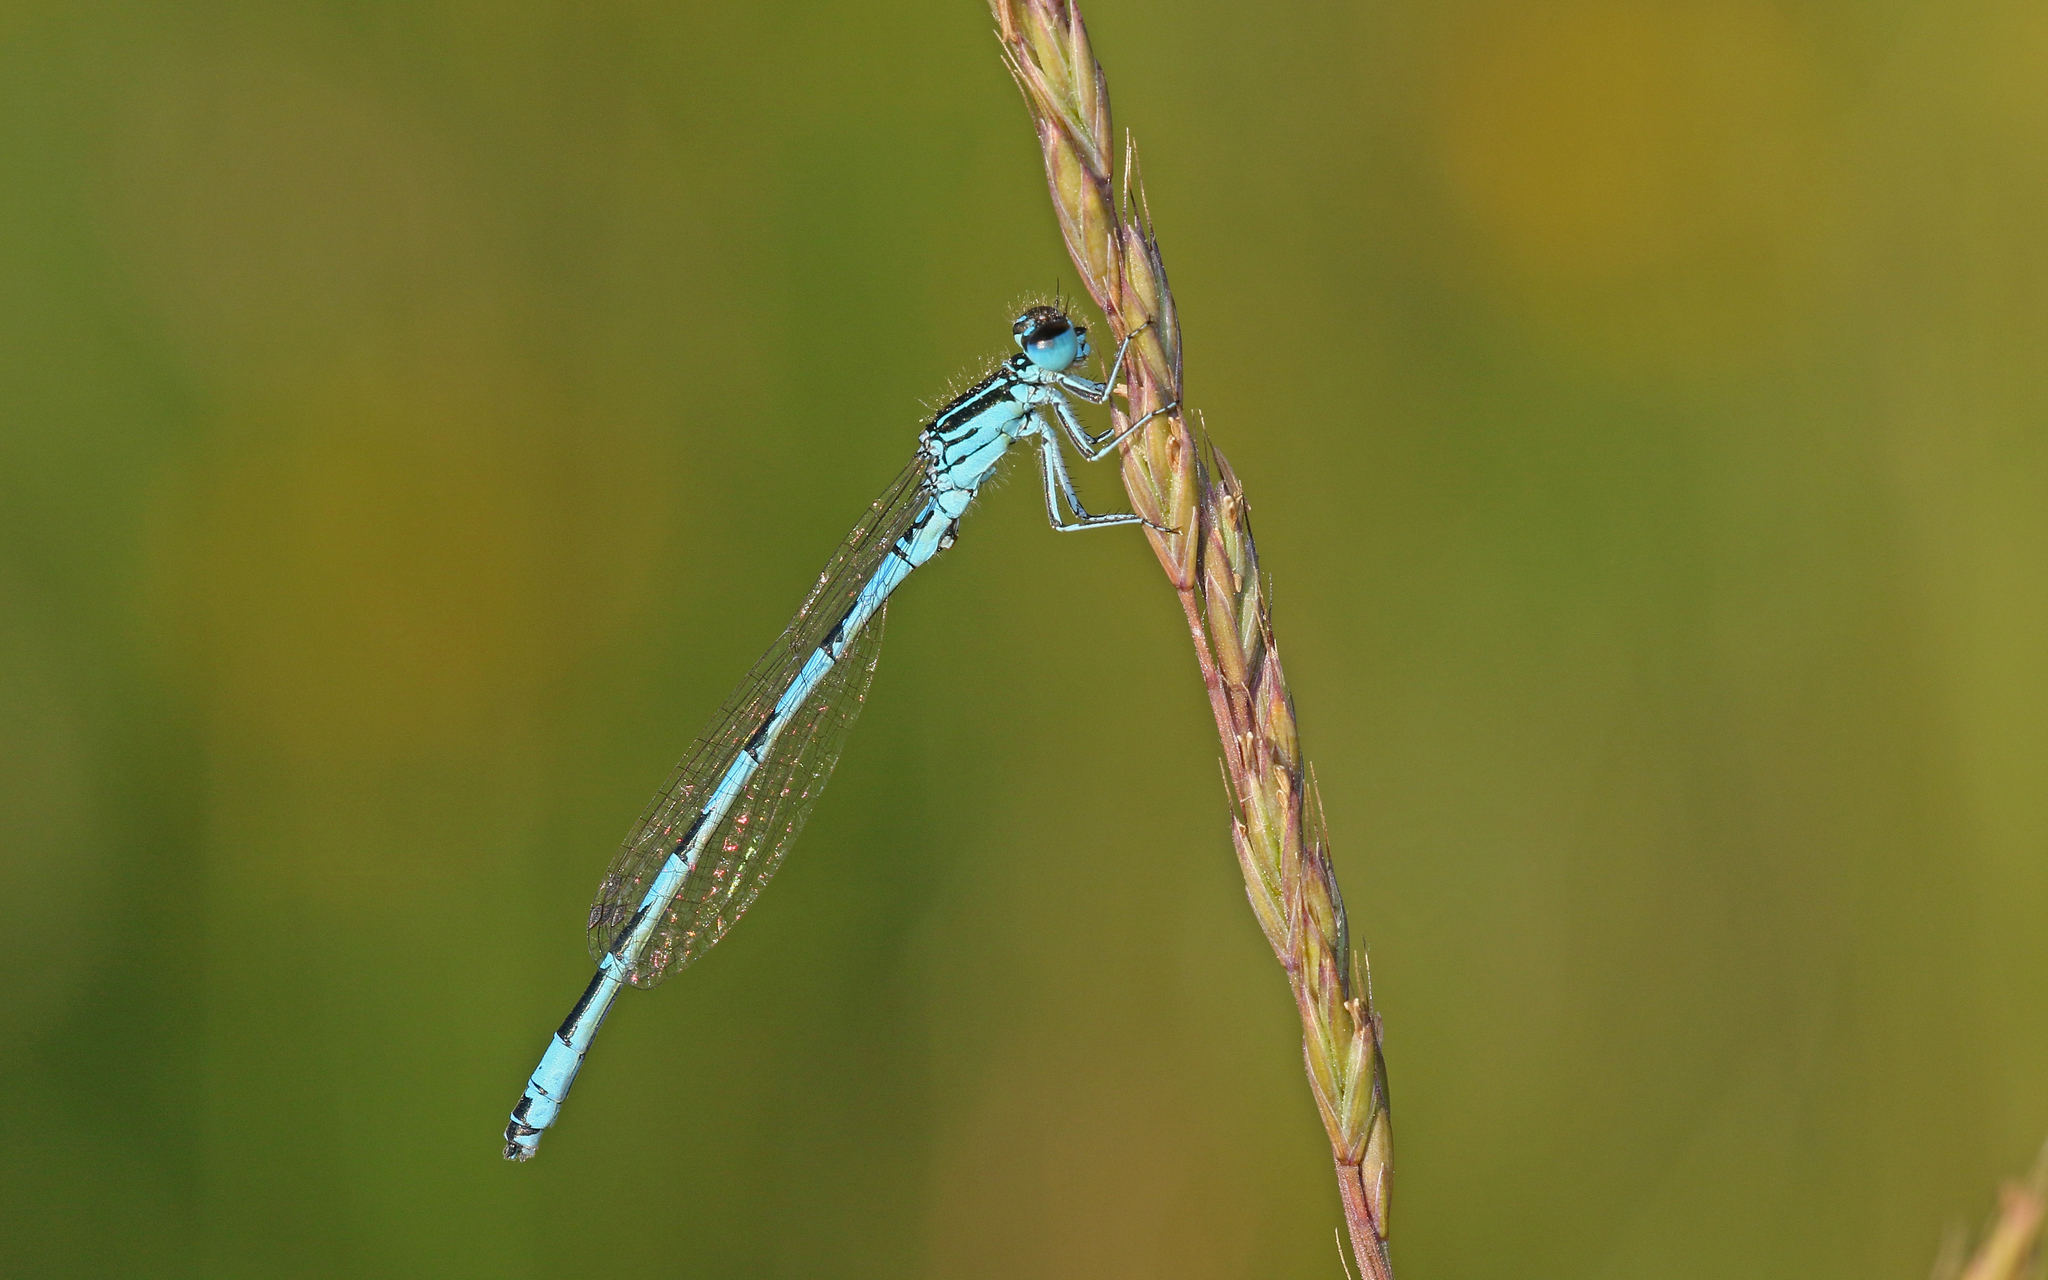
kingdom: Animalia
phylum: Arthropoda
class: Insecta
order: Odonata
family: Coenagrionidae
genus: Coenagrion
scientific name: Coenagrion mercuriale
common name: Southern damselfly
